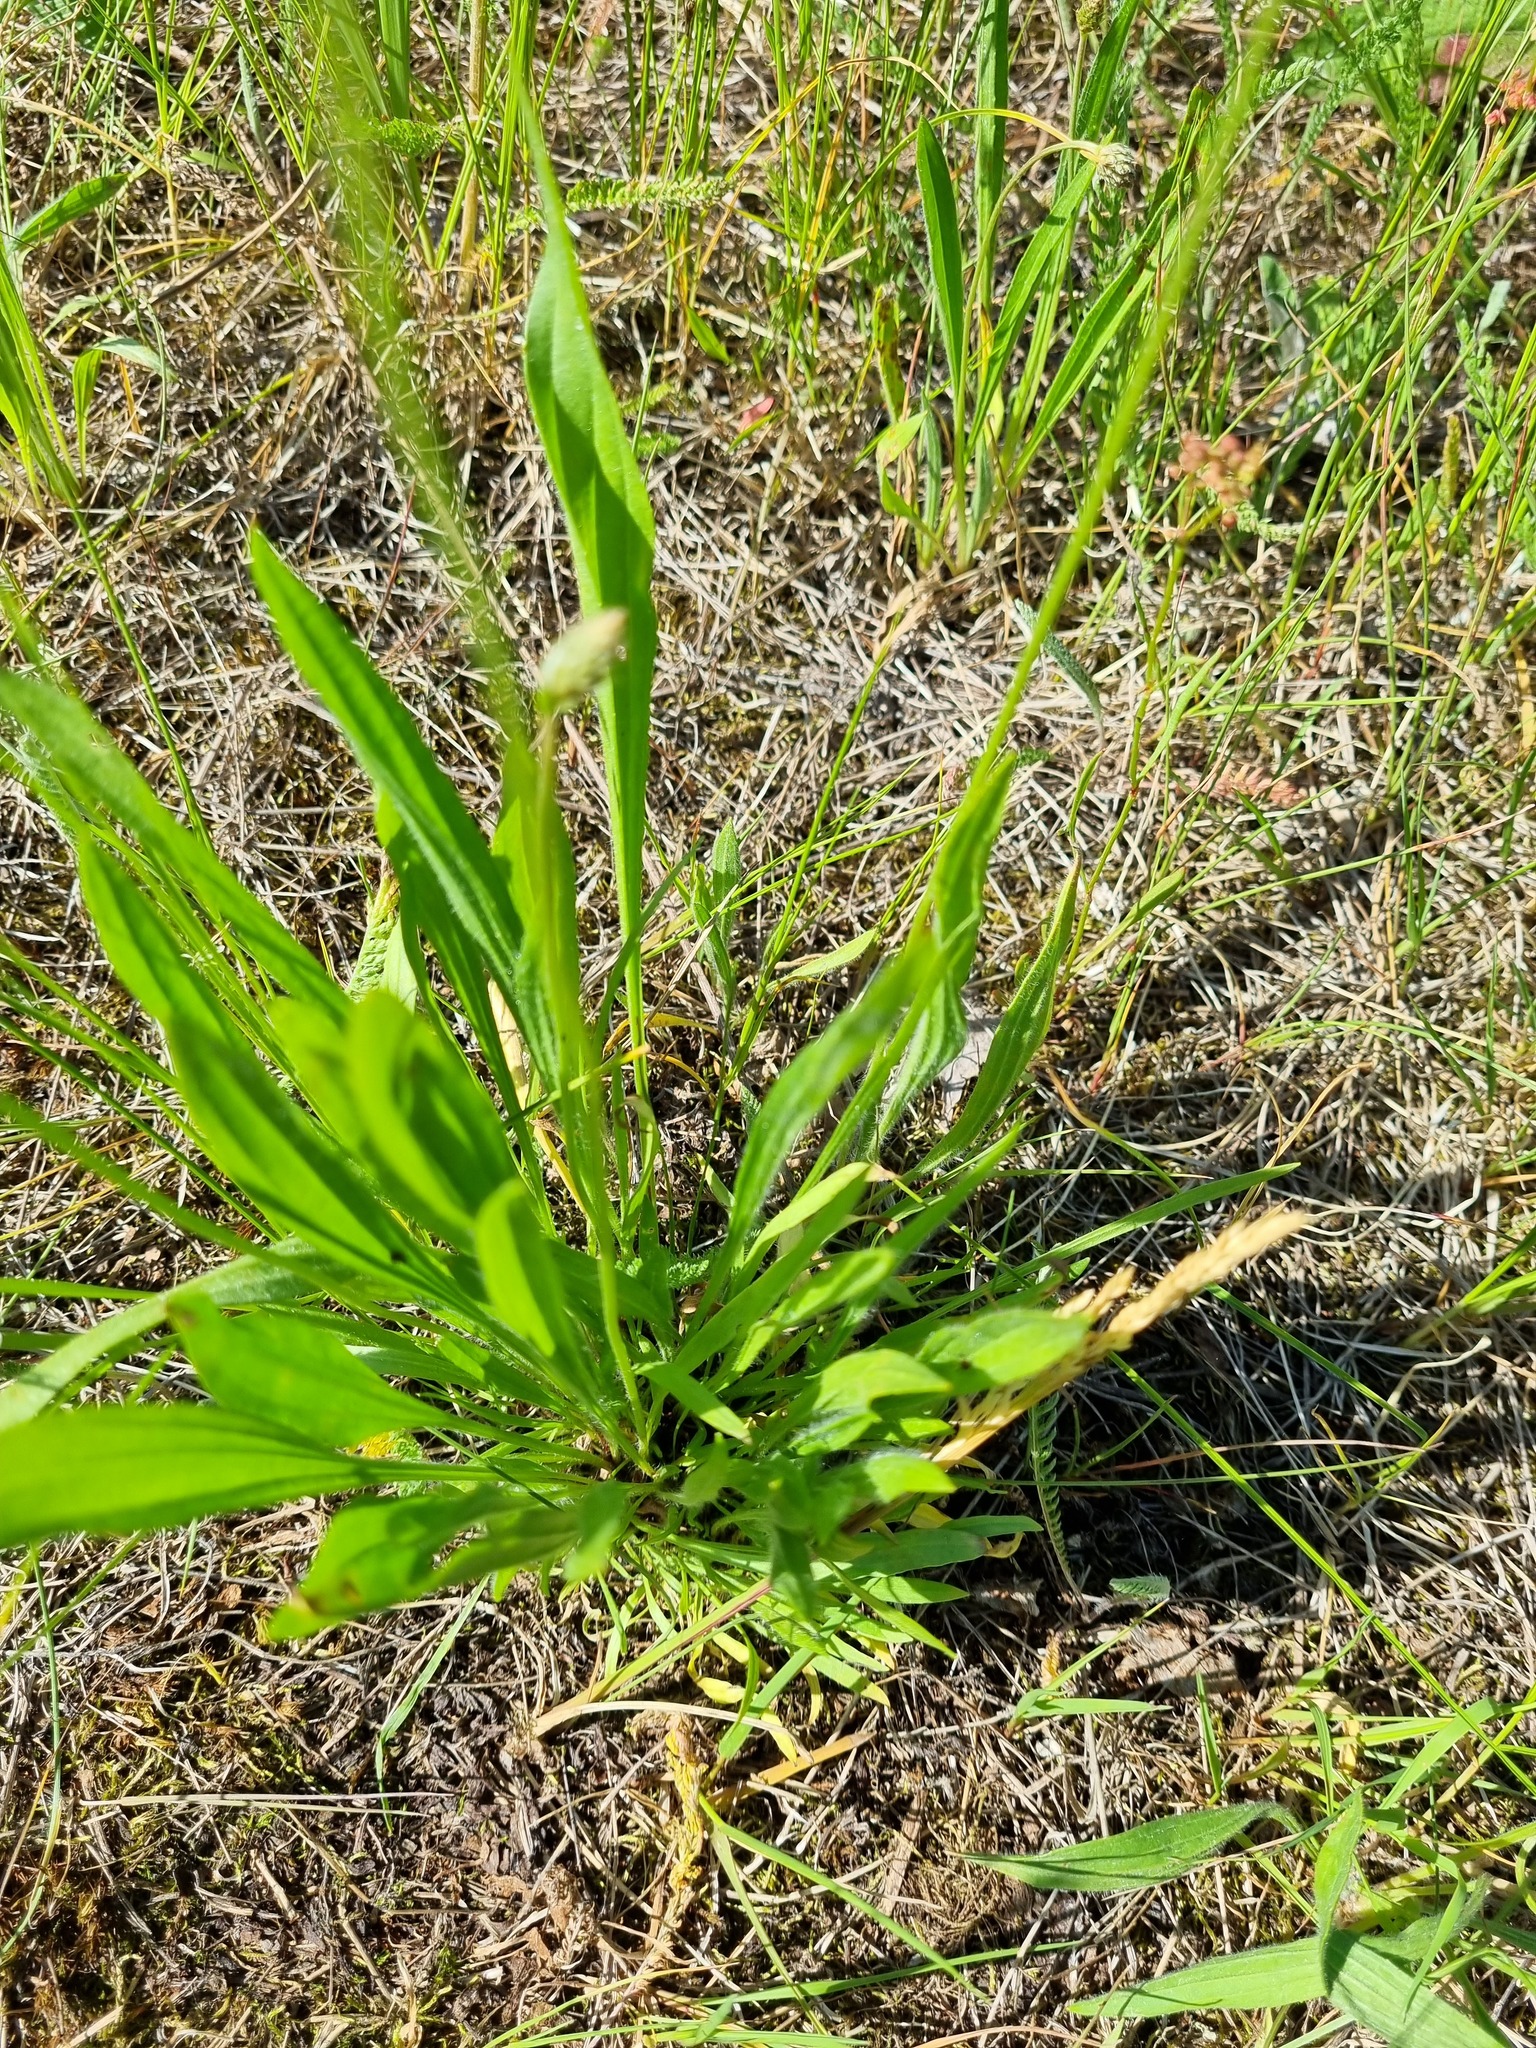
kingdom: Plantae
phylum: Tracheophyta
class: Magnoliopsida
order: Lamiales
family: Plantaginaceae
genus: Plantago
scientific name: Plantago lanceolata
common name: Ribwort plantain
